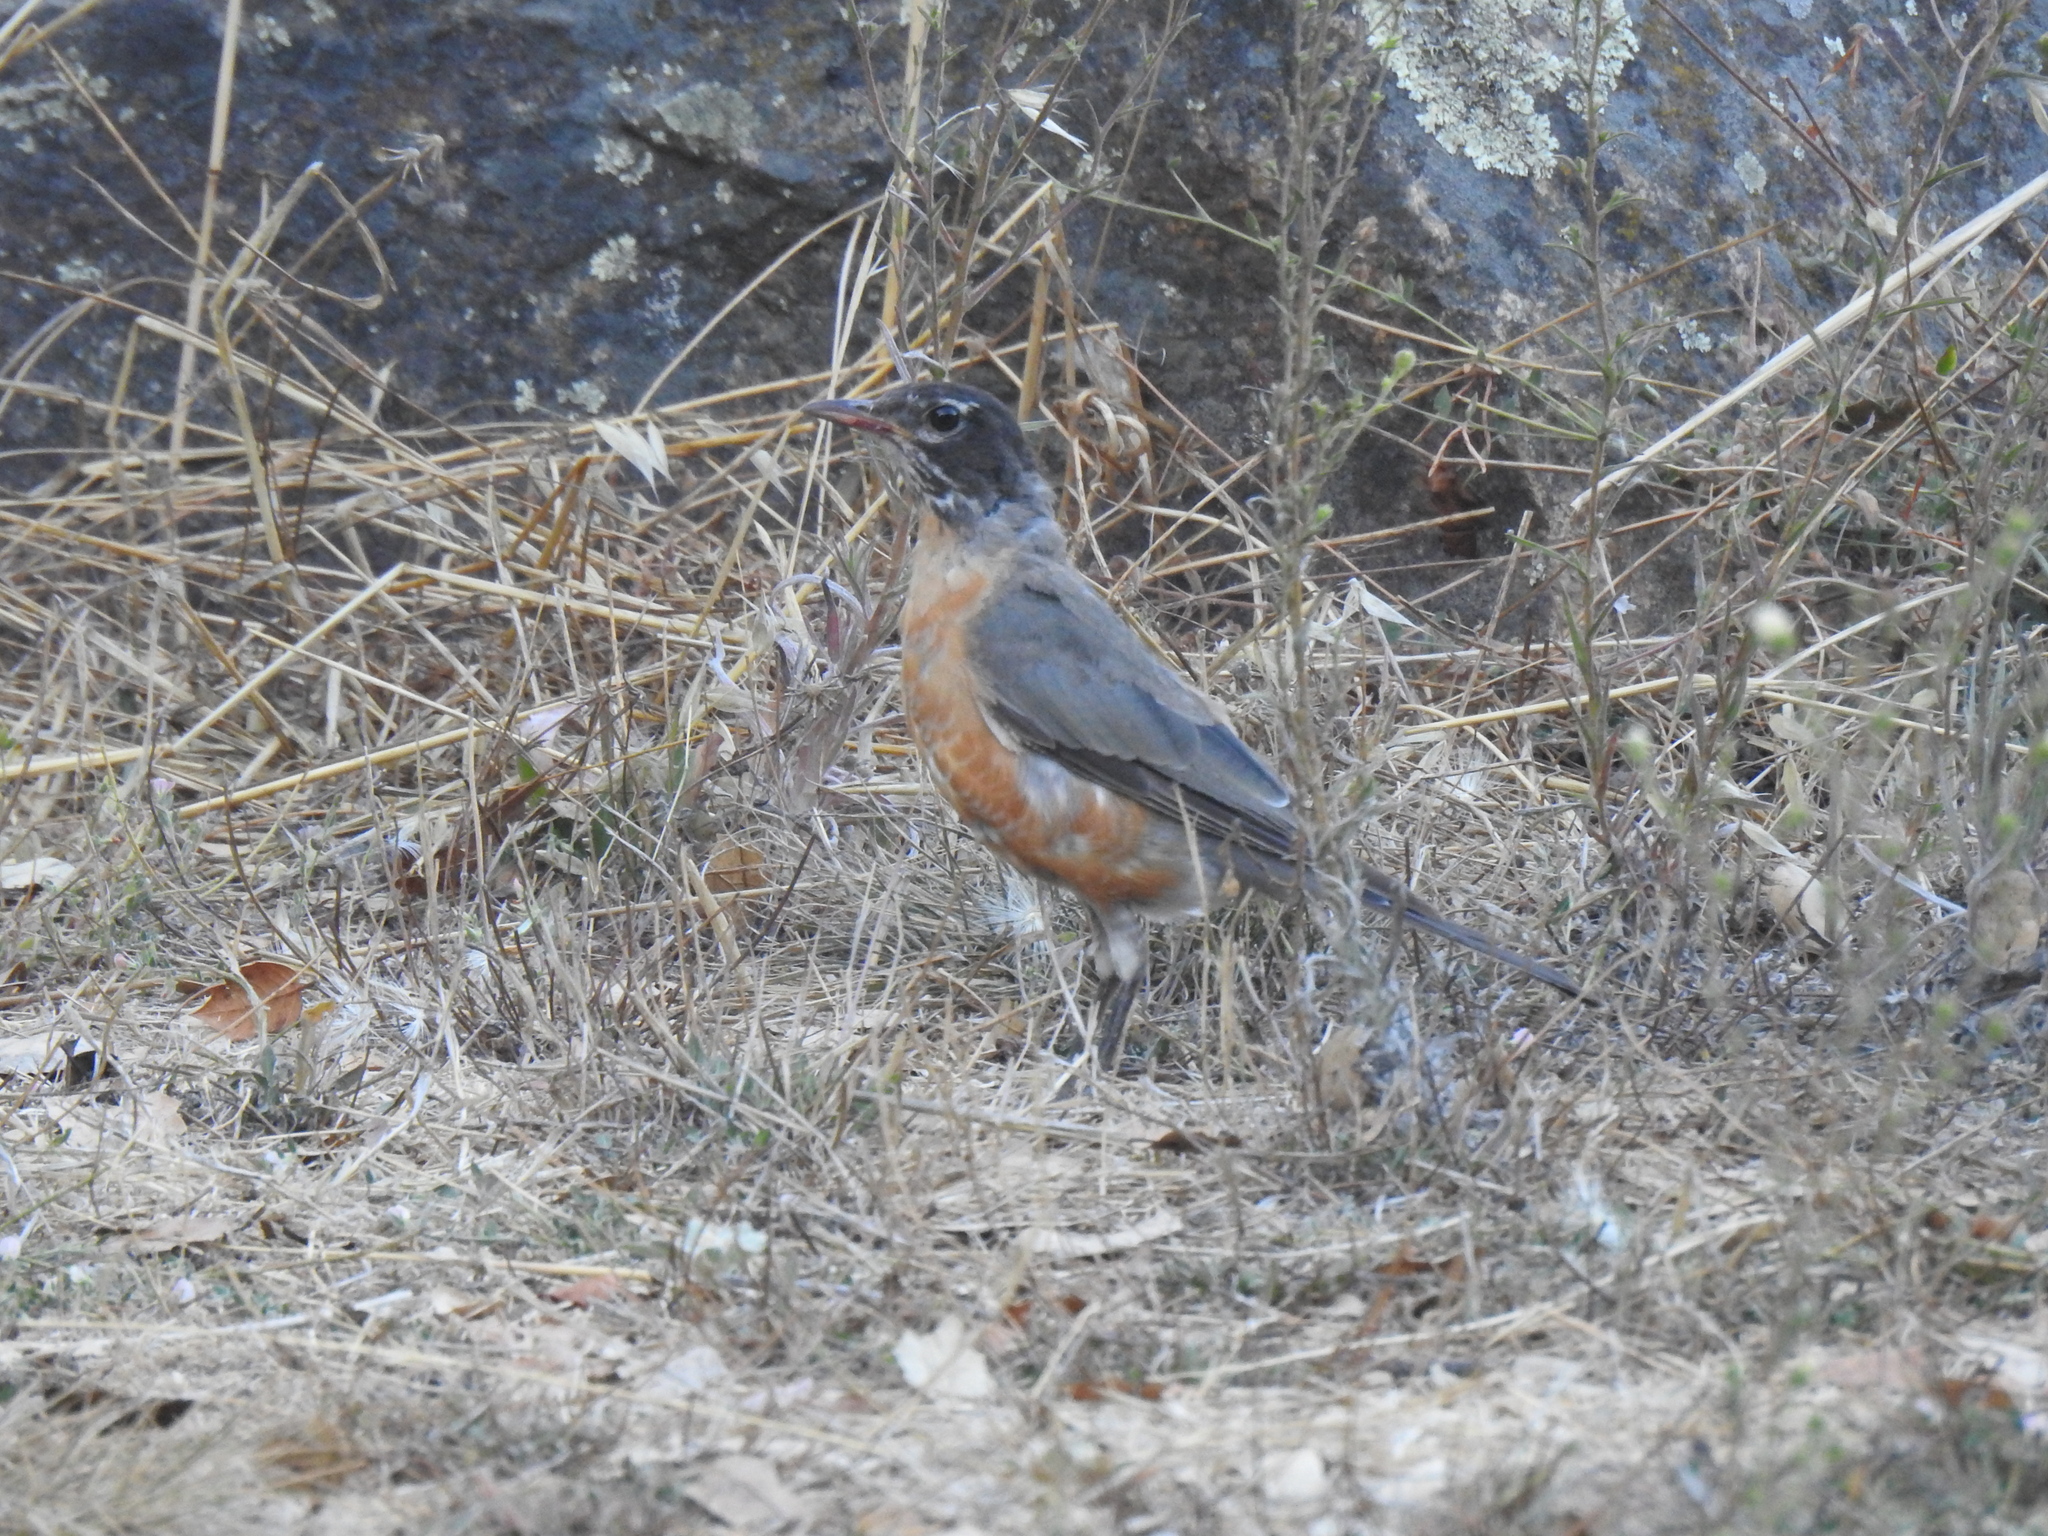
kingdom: Animalia
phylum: Chordata
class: Aves
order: Passeriformes
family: Turdidae
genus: Turdus
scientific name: Turdus migratorius
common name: American robin
